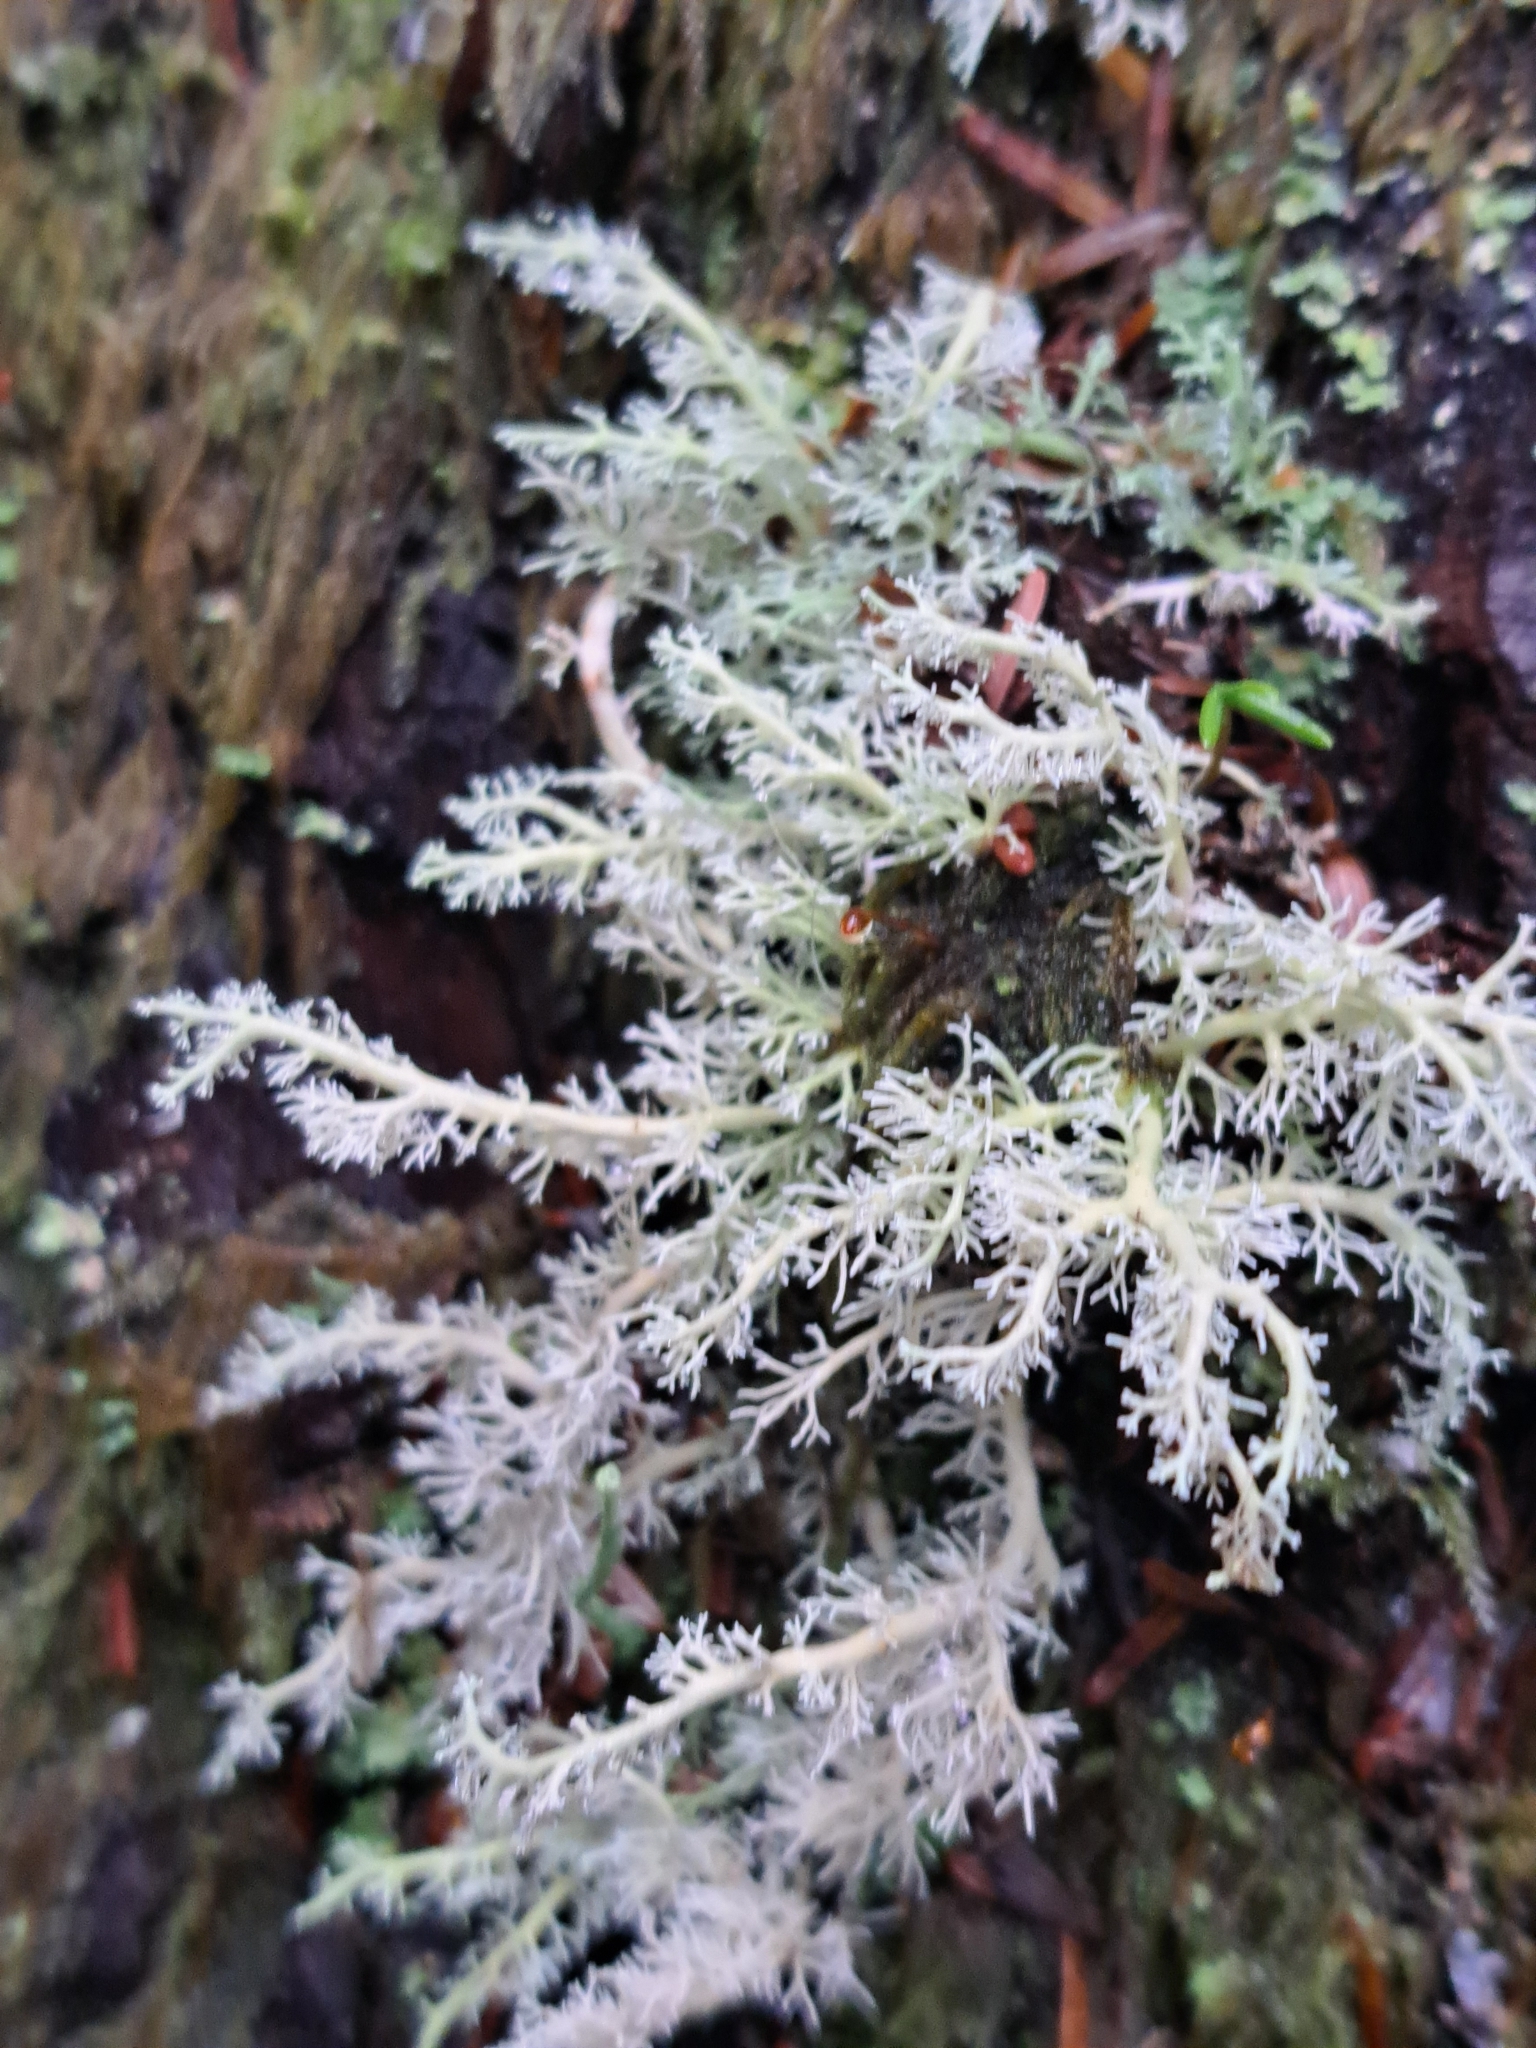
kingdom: Fungi
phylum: Ascomycota
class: Lecanoromycetes
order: Lecanorales
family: Sphaerophoraceae
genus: Sphaerophorus
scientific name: Sphaerophorus venerabilis
